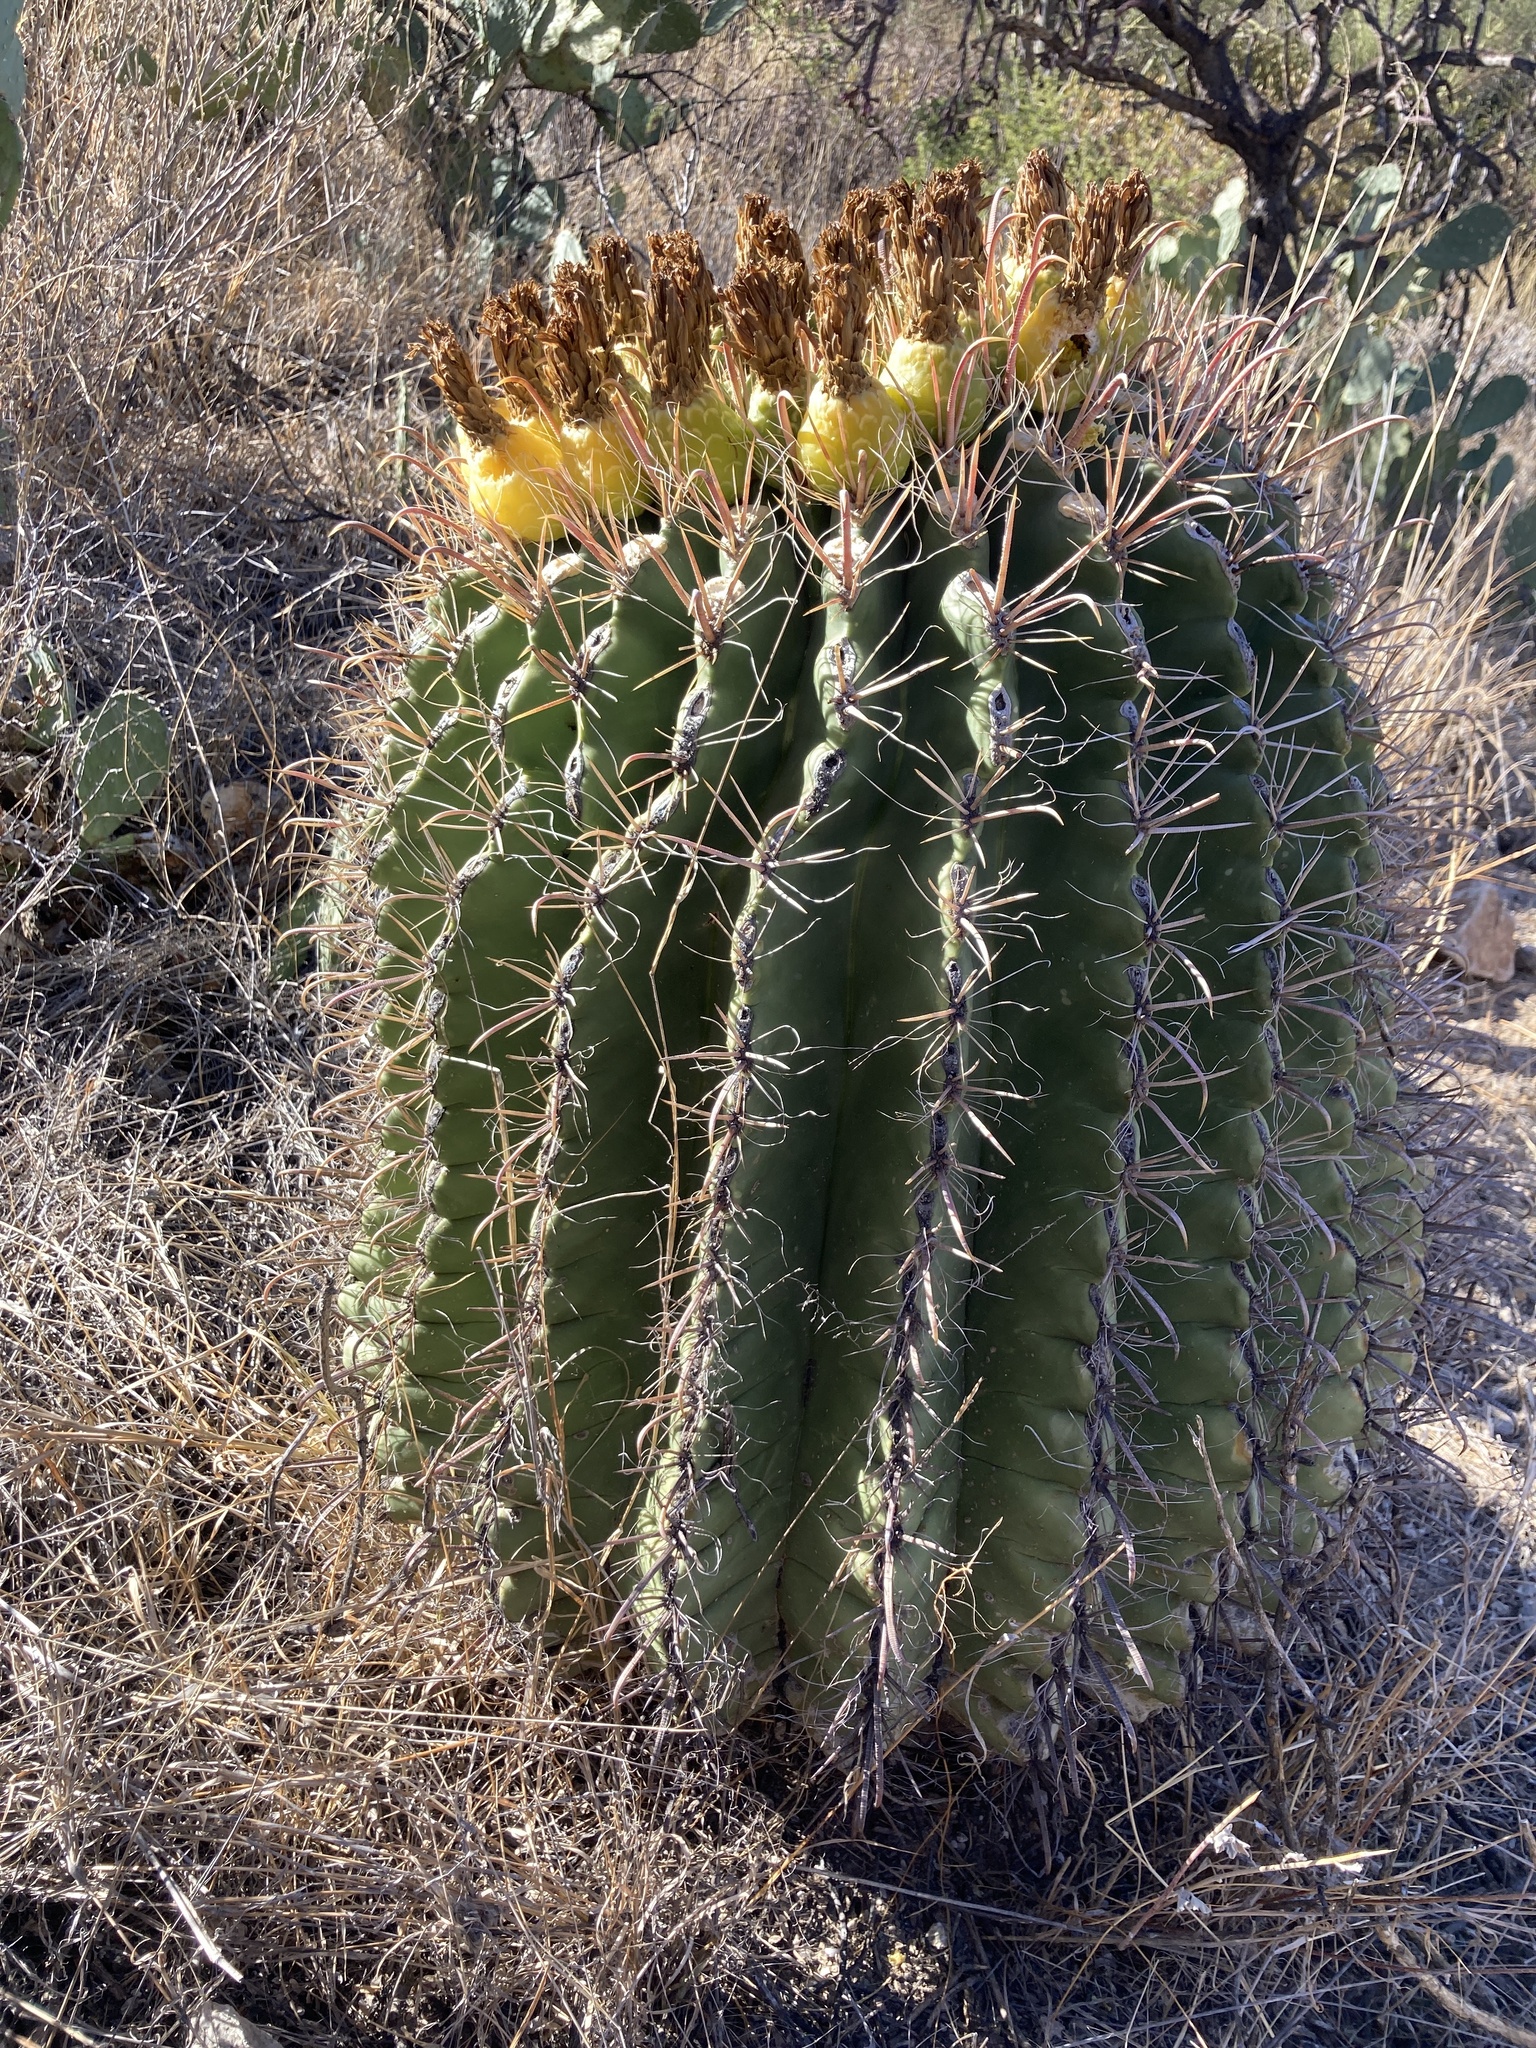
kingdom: Plantae
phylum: Tracheophyta
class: Magnoliopsida
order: Caryophyllales
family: Cactaceae
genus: Ferocactus
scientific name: Ferocactus wislizeni
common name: Candy barrel cactus
